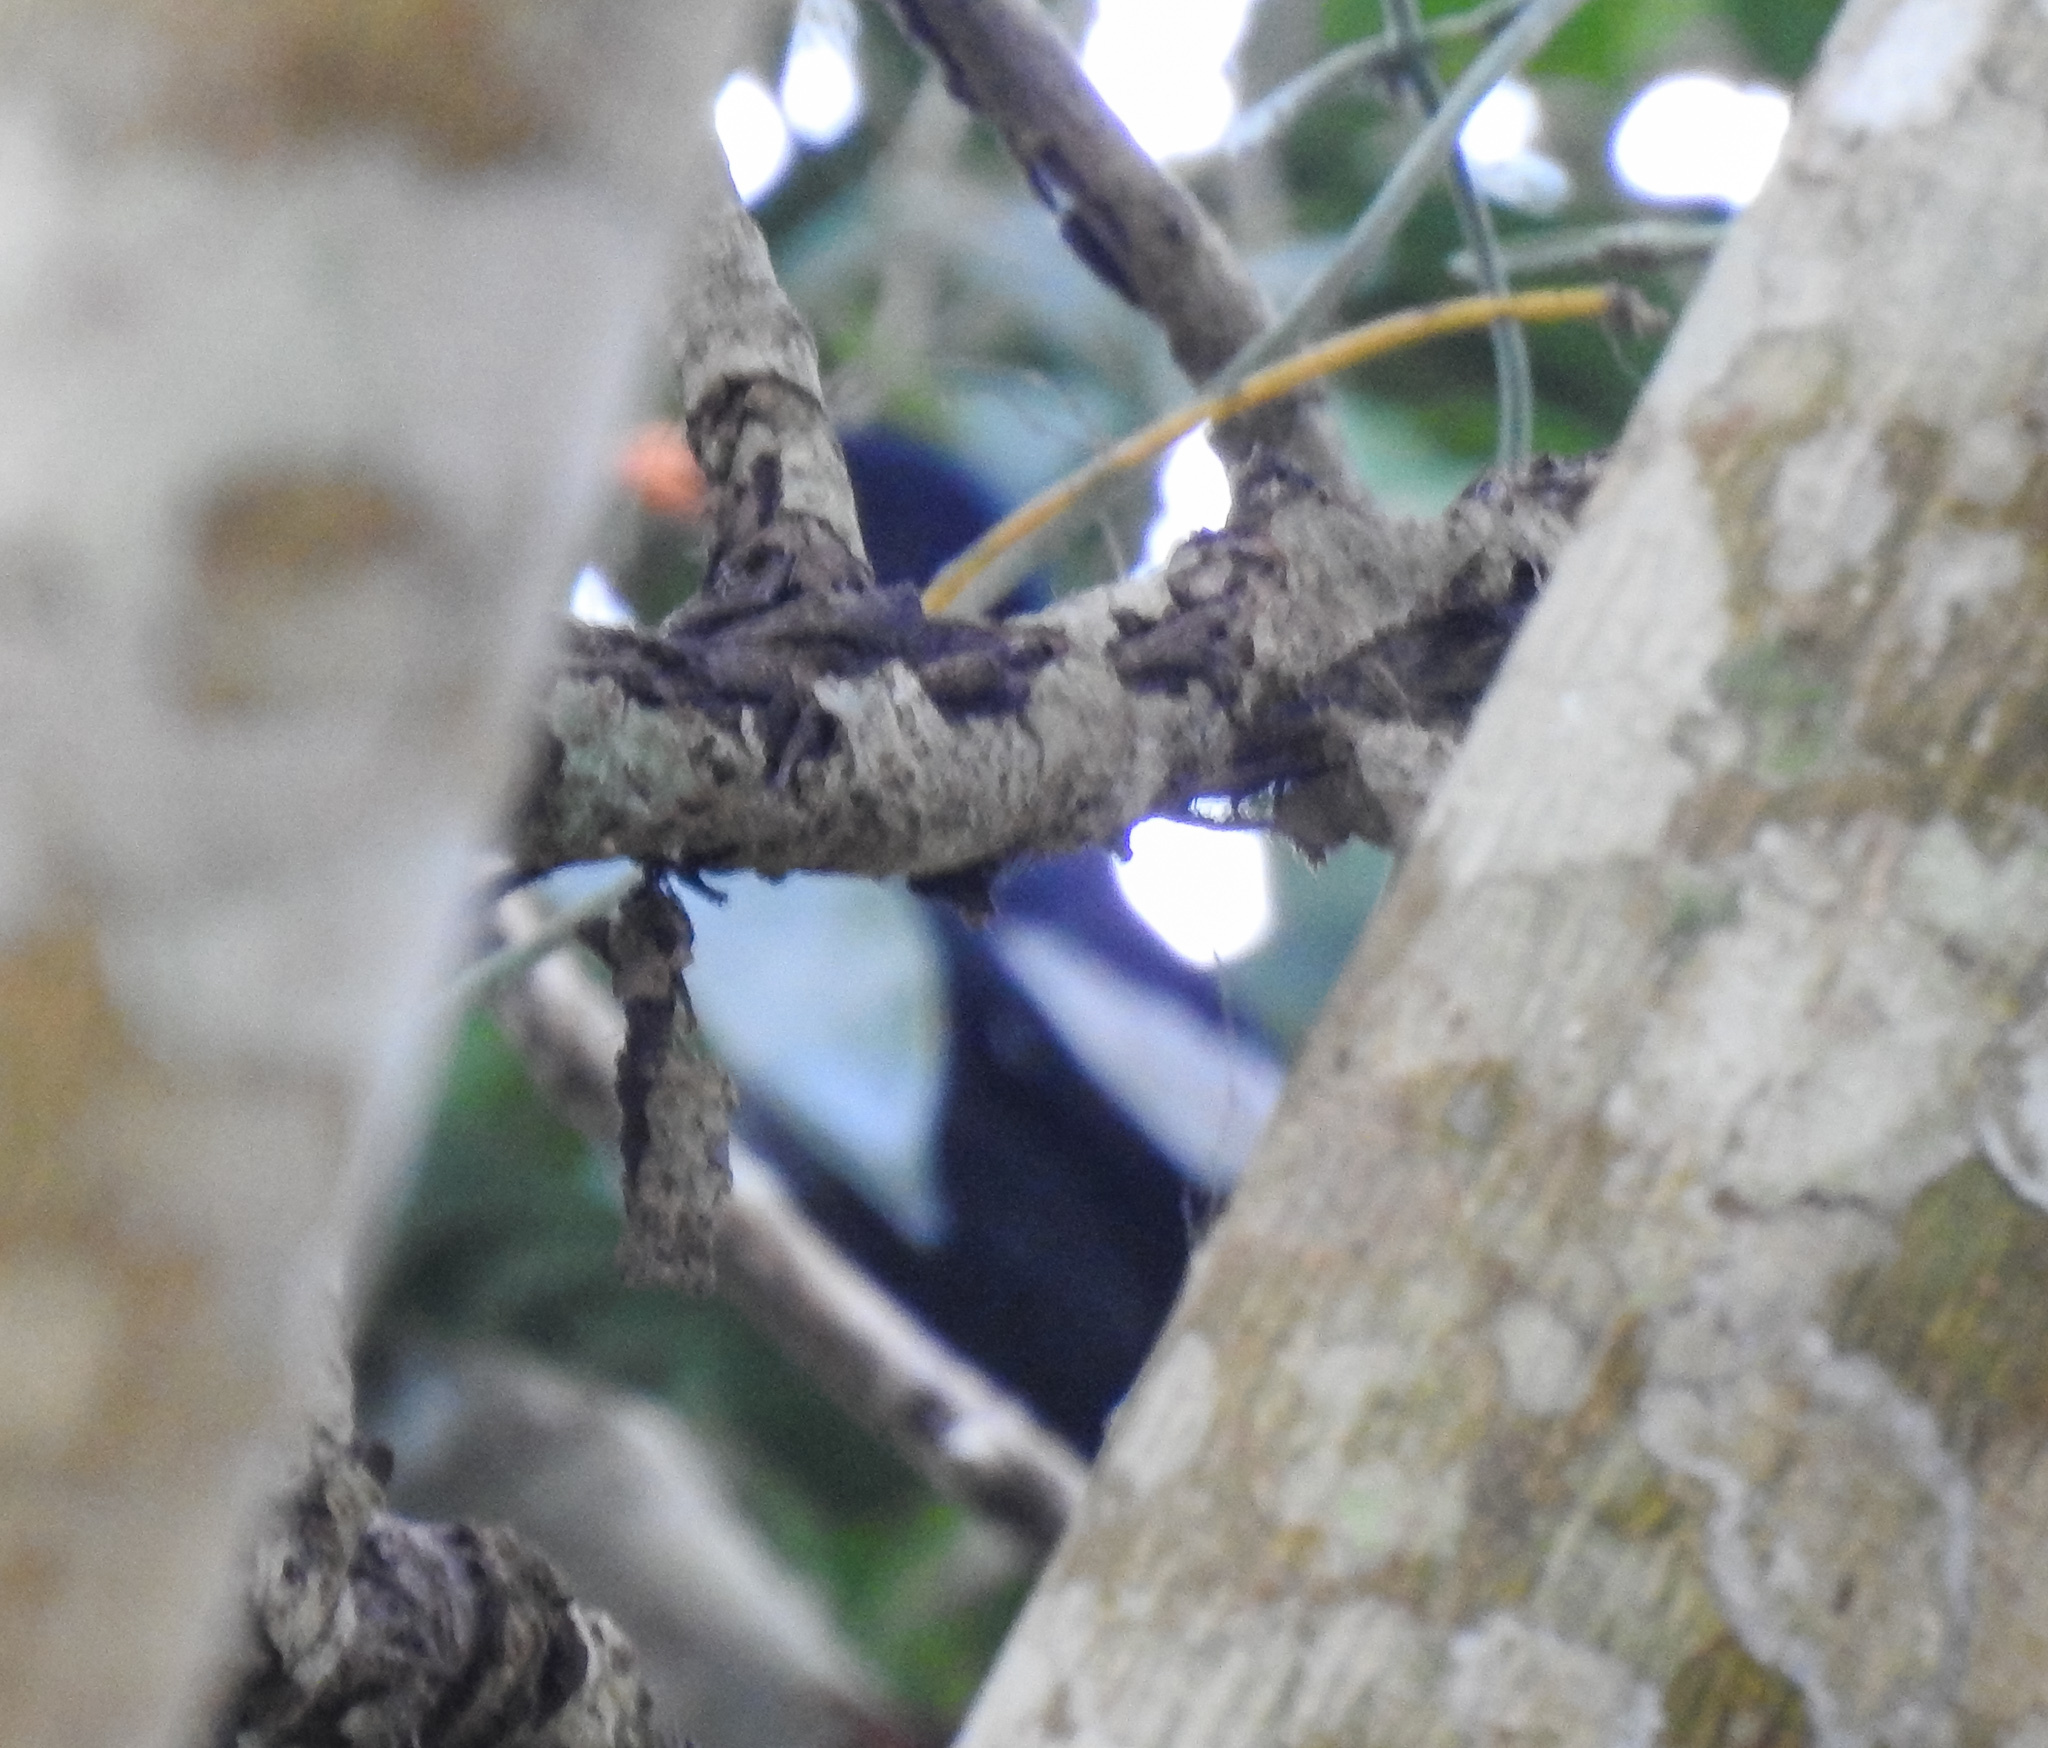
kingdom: Animalia
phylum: Chordata
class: Aves
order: Passeriformes
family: Turdidae
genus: Turdus
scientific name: Turdus boulboul
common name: Grey-winged blackbird
